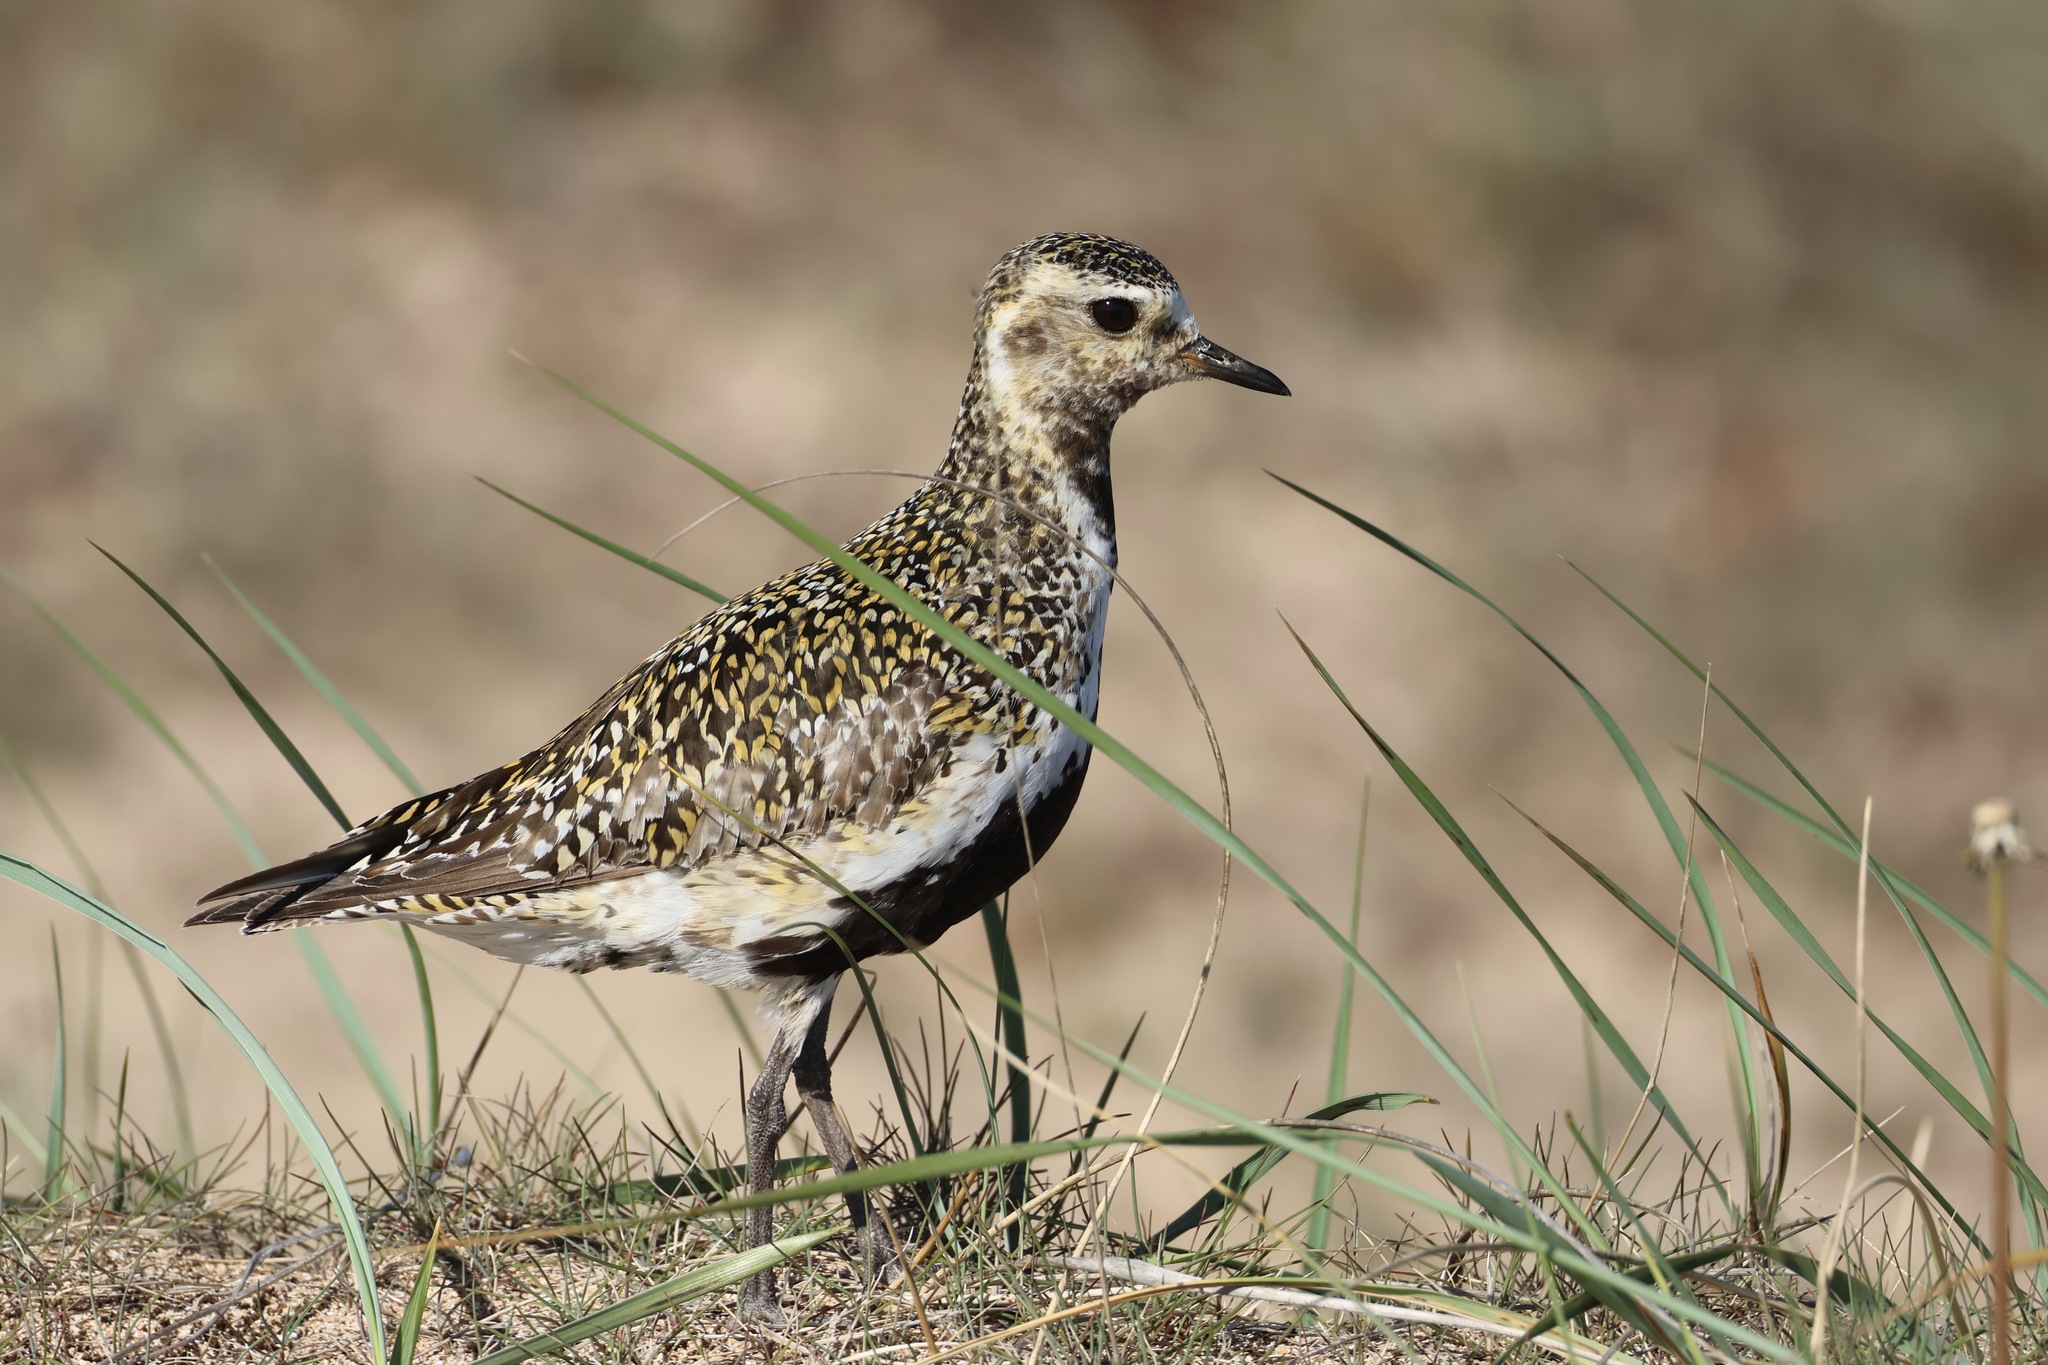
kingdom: Animalia
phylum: Chordata
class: Aves
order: Charadriiformes
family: Charadriidae
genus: Pluvialis
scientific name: Pluvialis apricaria
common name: European golden plover
